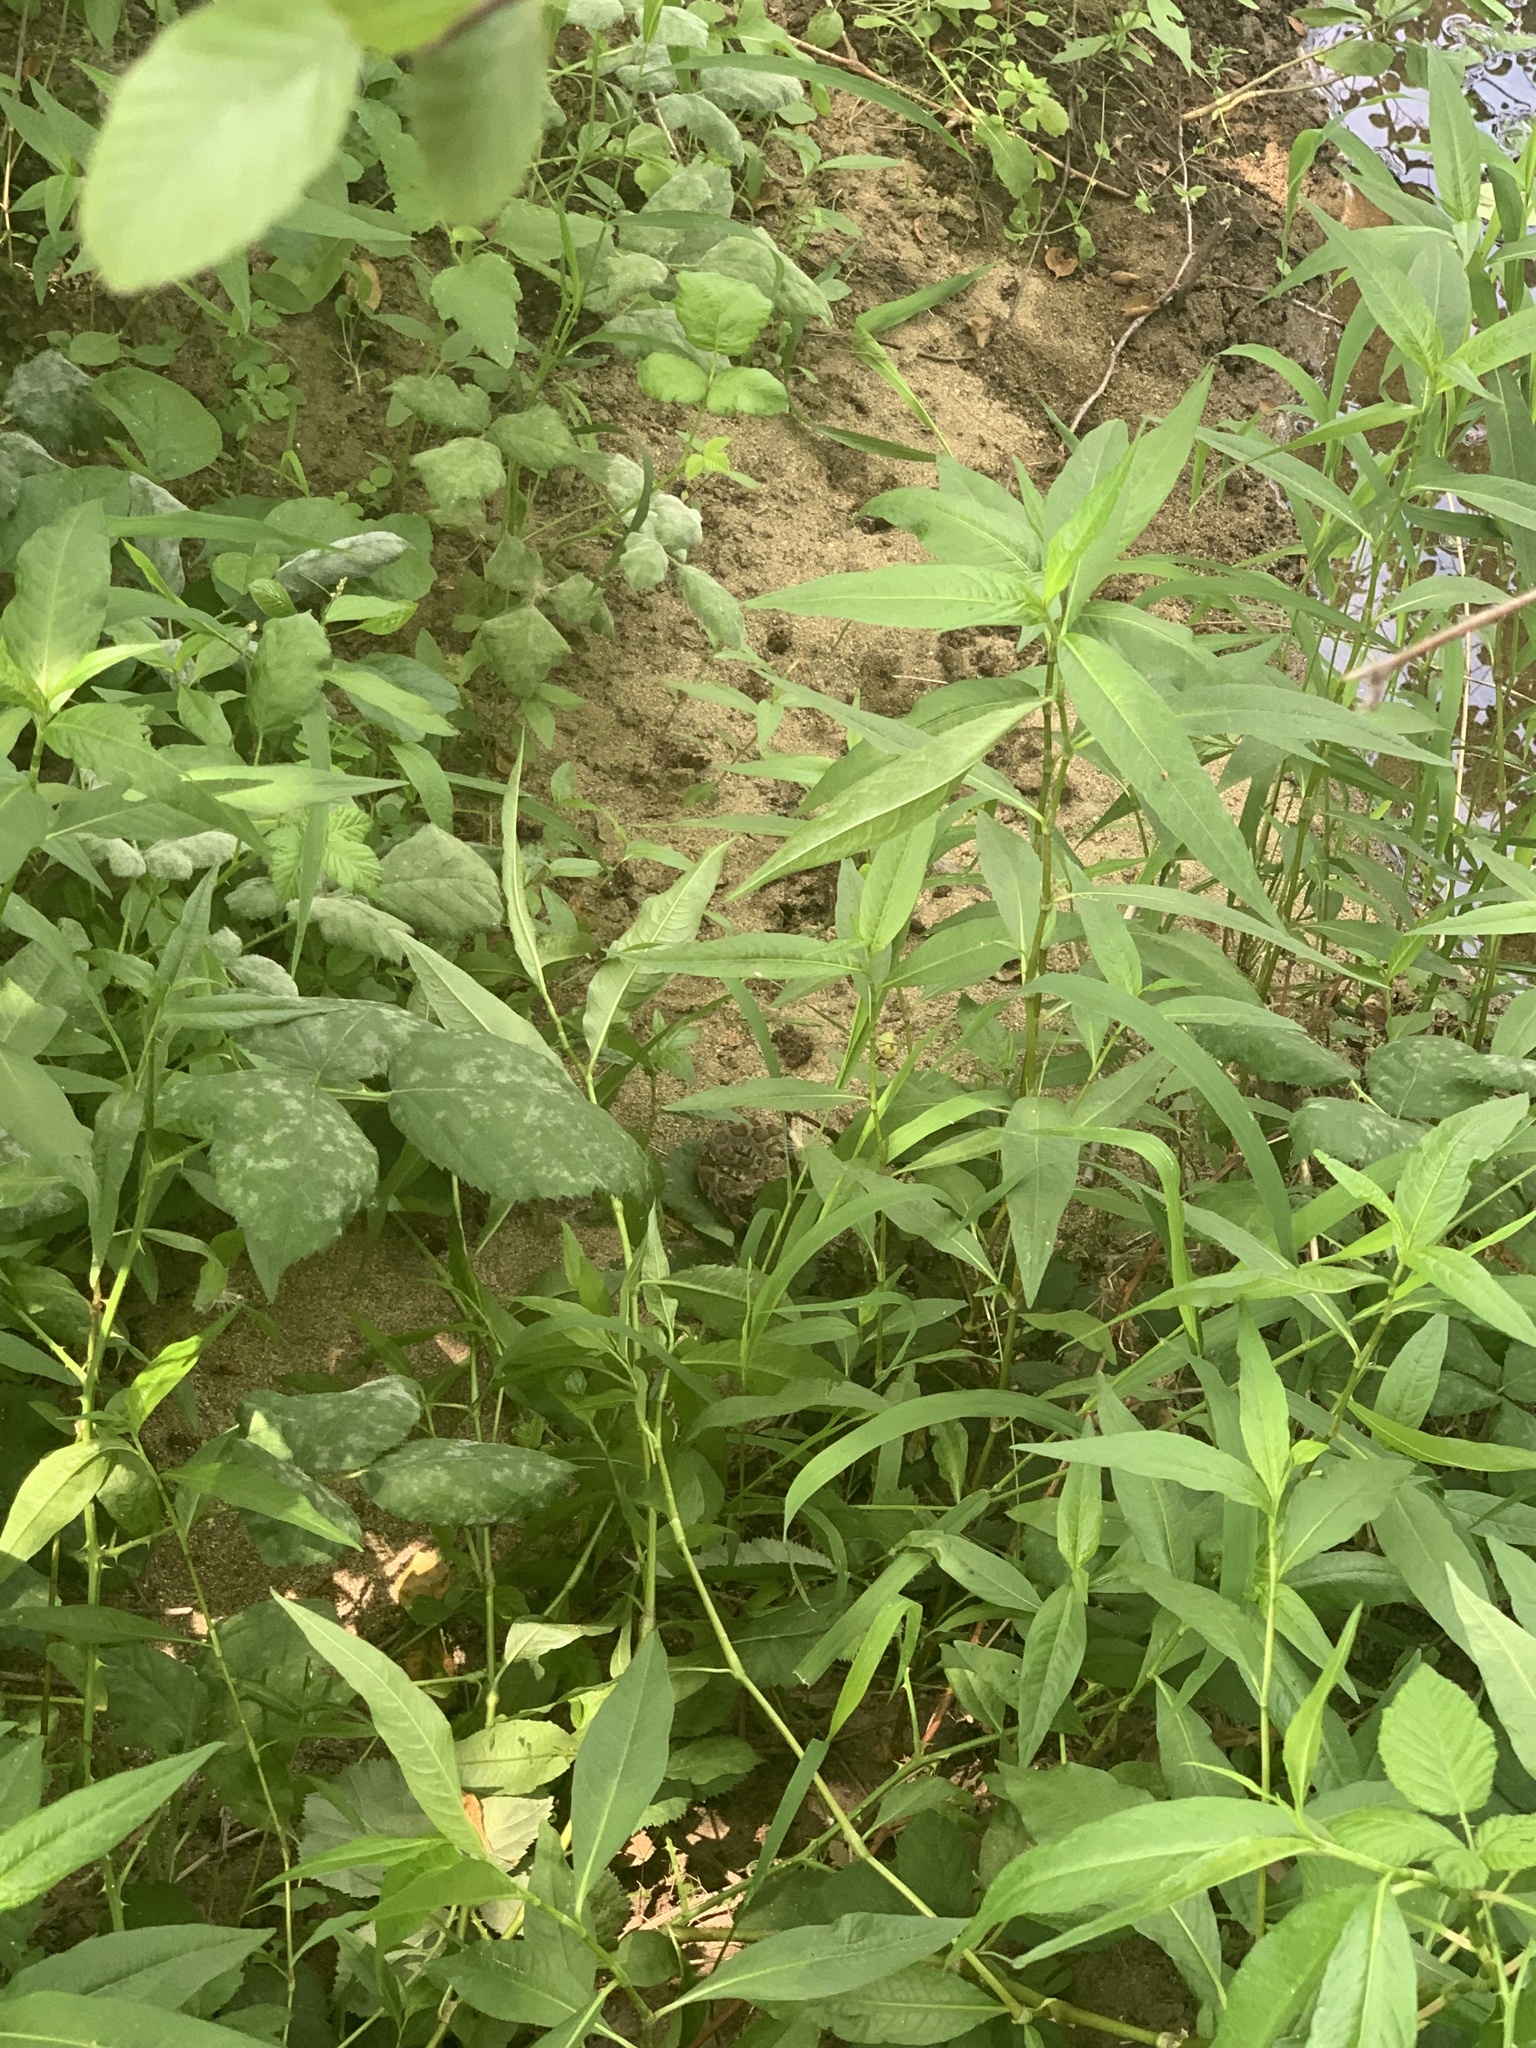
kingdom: Animalia
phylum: Chordata
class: Squamata
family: Viperidae
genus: Crotalus
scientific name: Crotalus oreganus
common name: Abyssus
